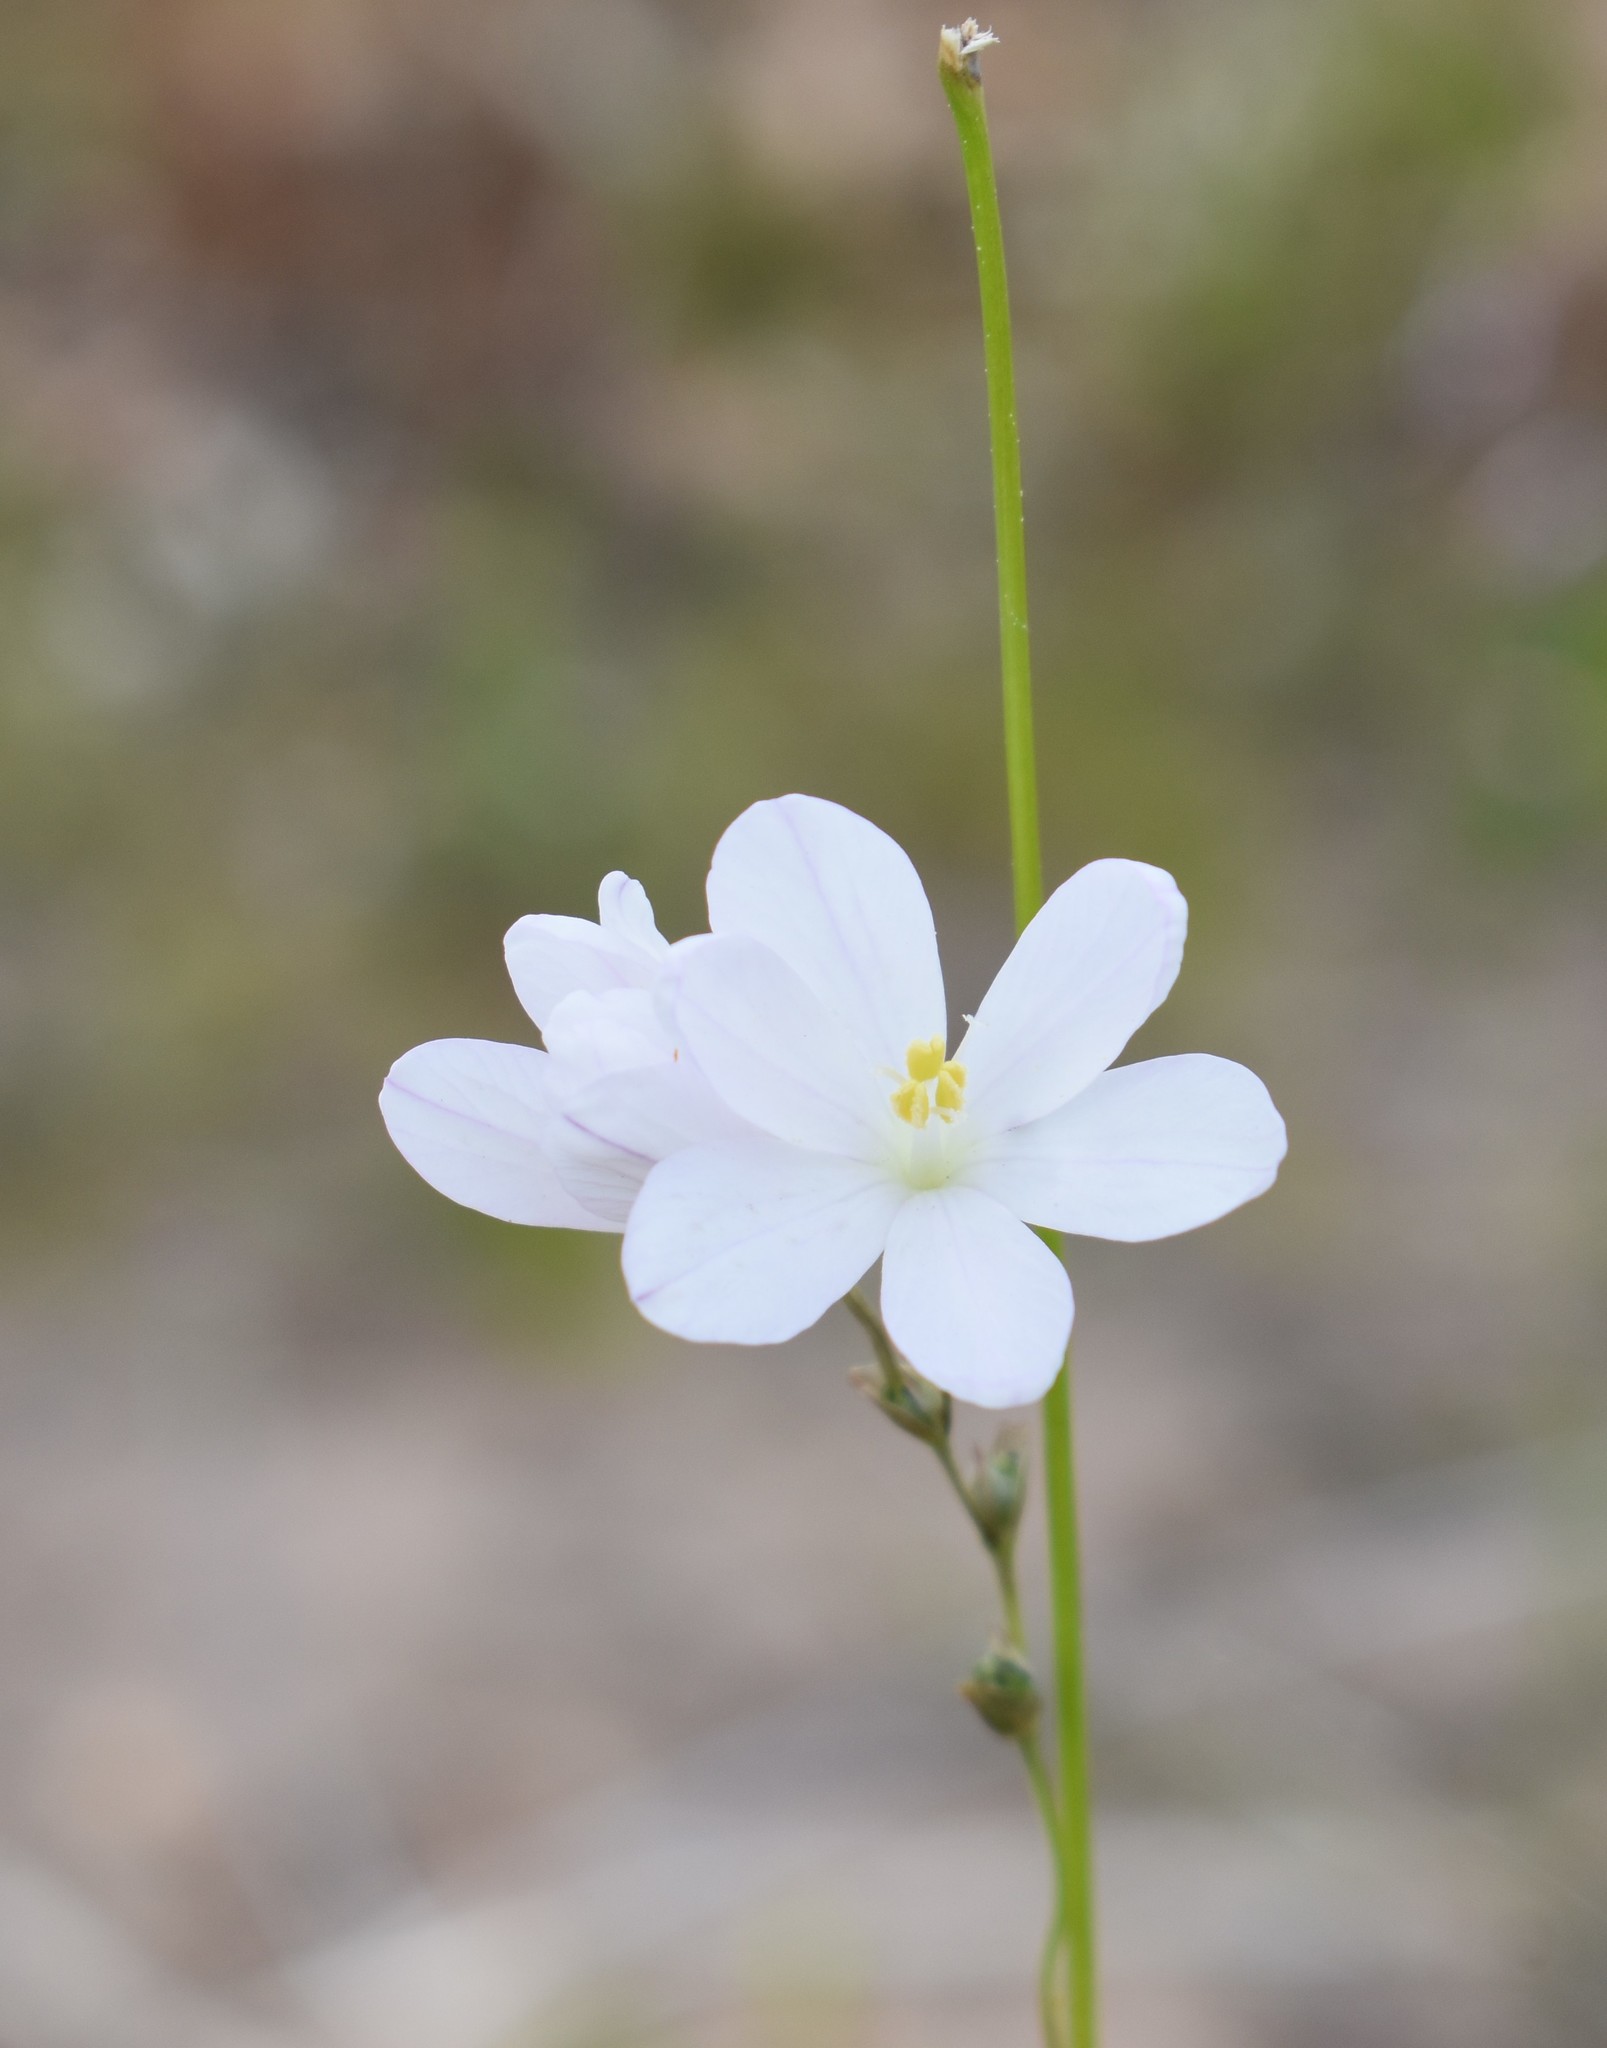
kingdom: Plantae
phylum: Tracheophyta
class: Liliopsida
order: Asparagales
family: Iridaceae
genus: Ixia
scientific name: Ixia orientalis
